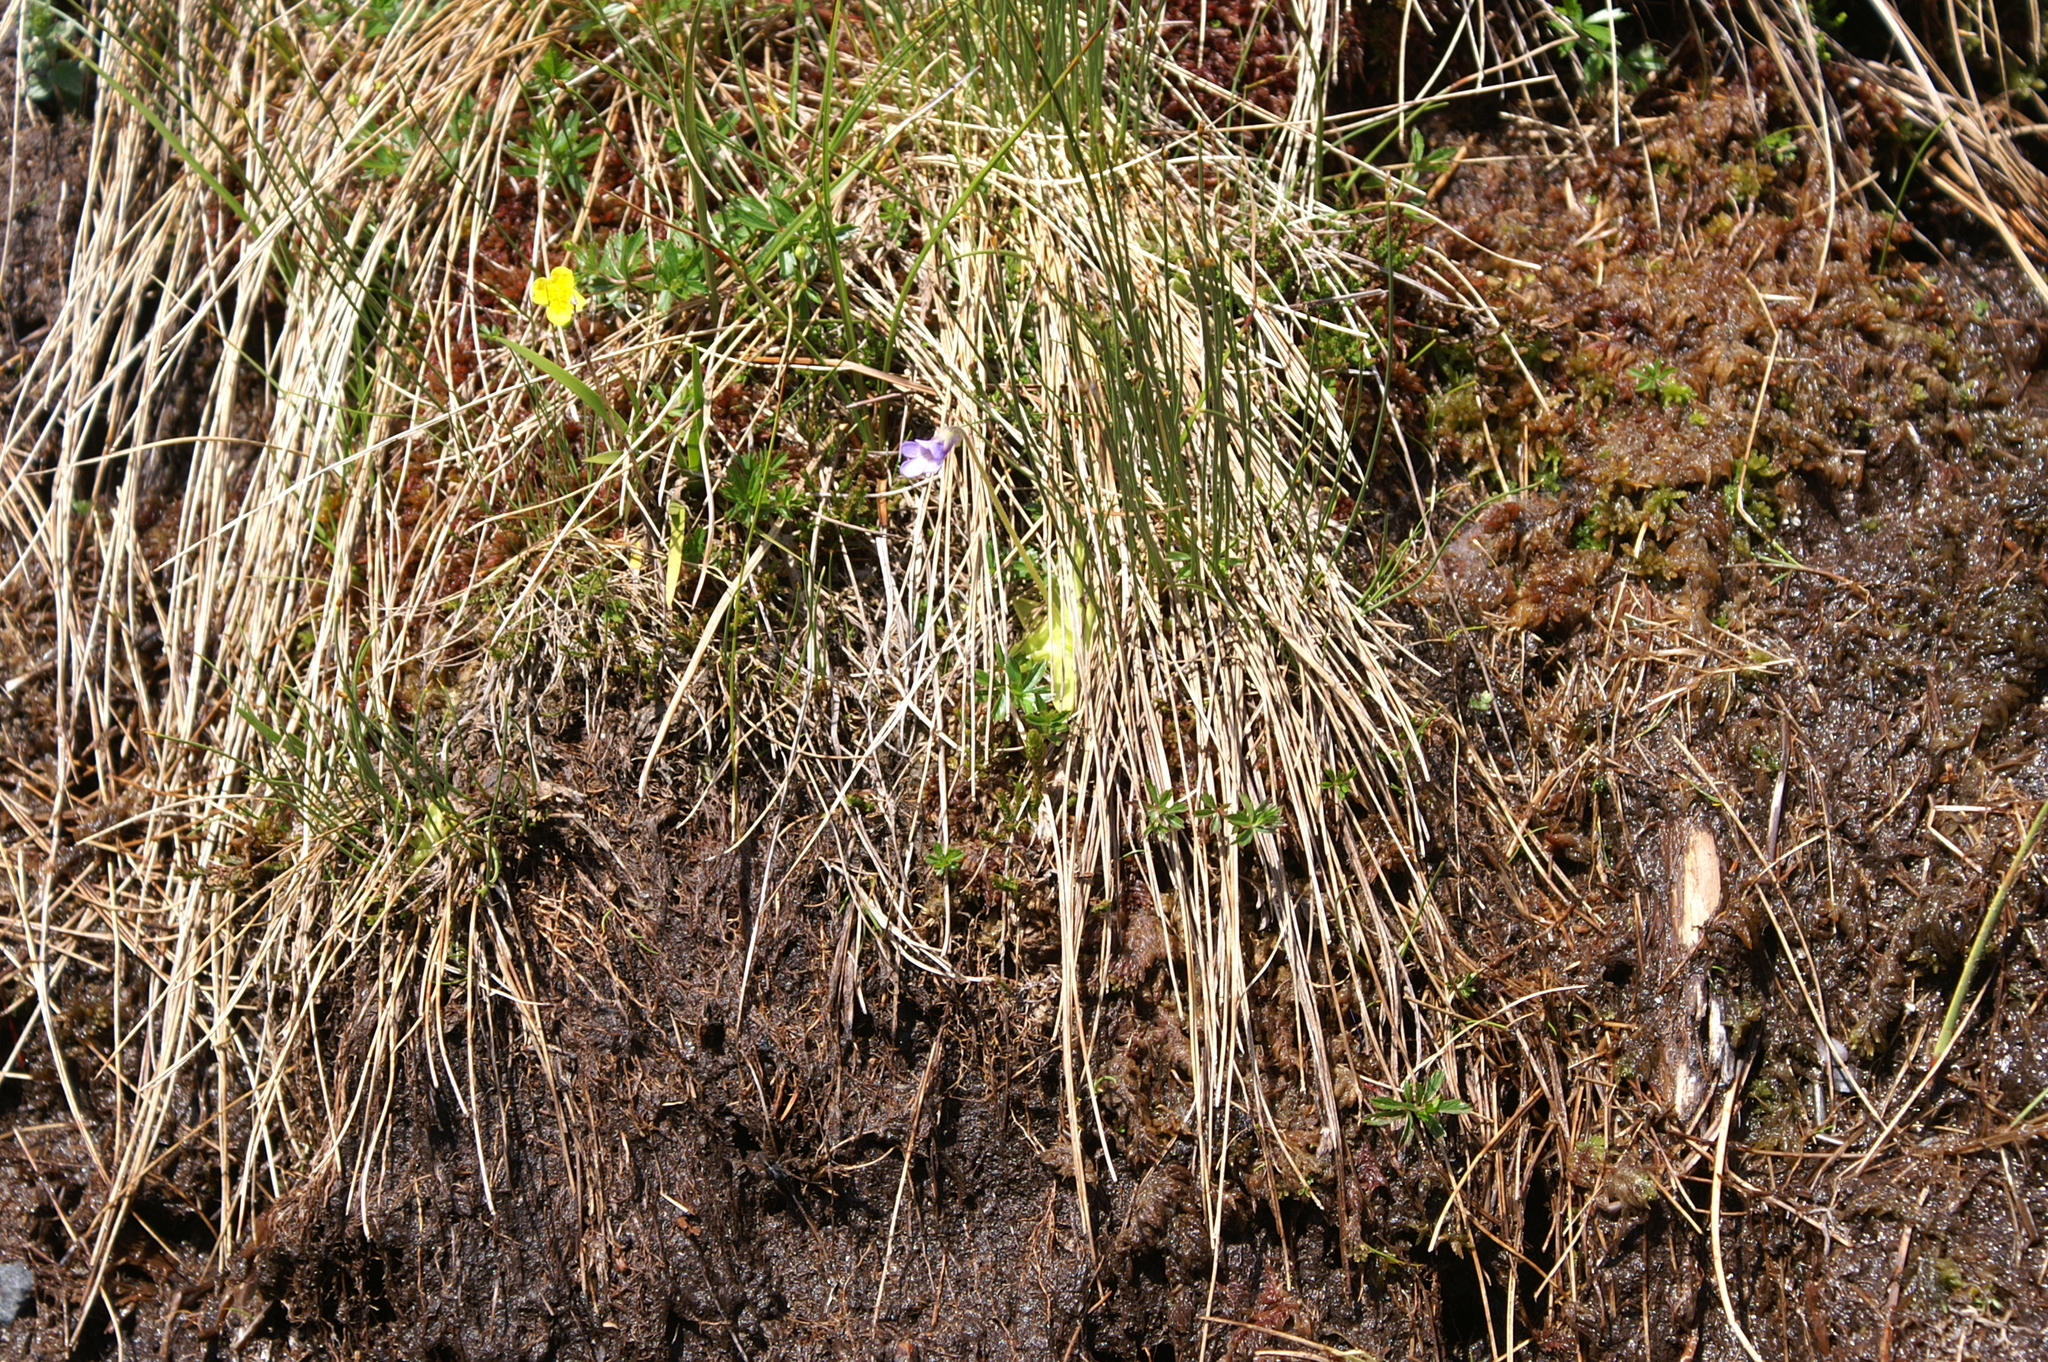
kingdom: Plantae
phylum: Tracheophyta
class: Magnoliopsida
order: Lamiales
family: Lentibulariaceae
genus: Pinguicula
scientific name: Pinguicula vulgaris
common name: Common butterwort
